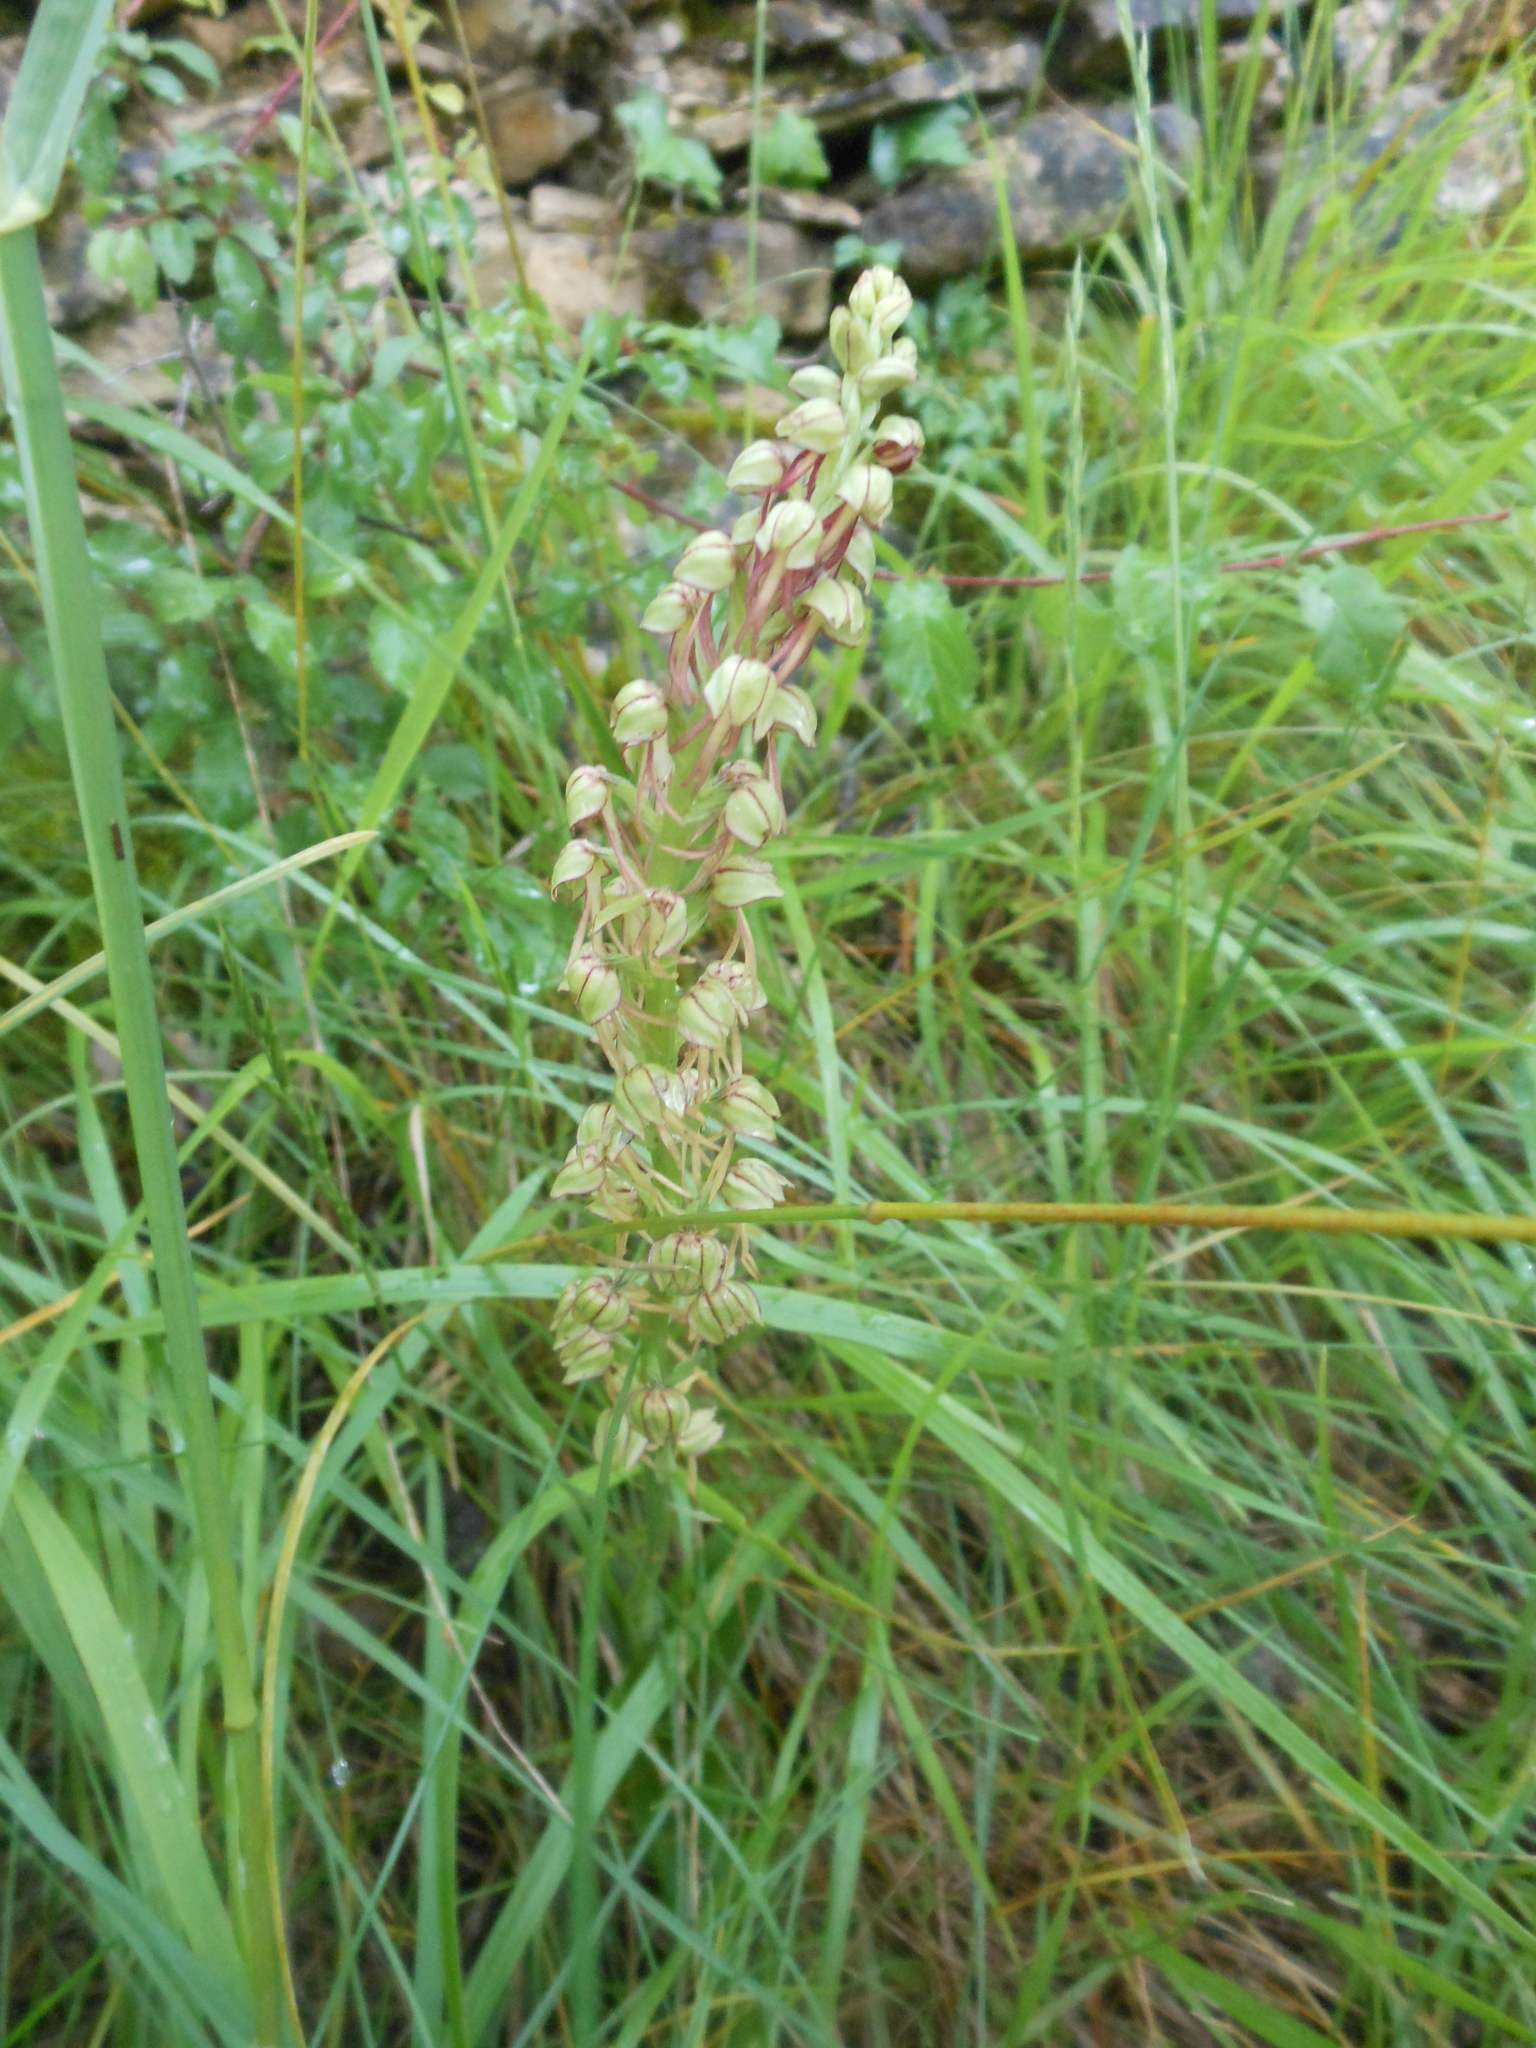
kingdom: Plantae
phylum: Tracheophyta
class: Liliopsida
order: Asparagales
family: Orchidaceae
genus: Orchis
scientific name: Orchis anthropophora
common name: Man orchid
